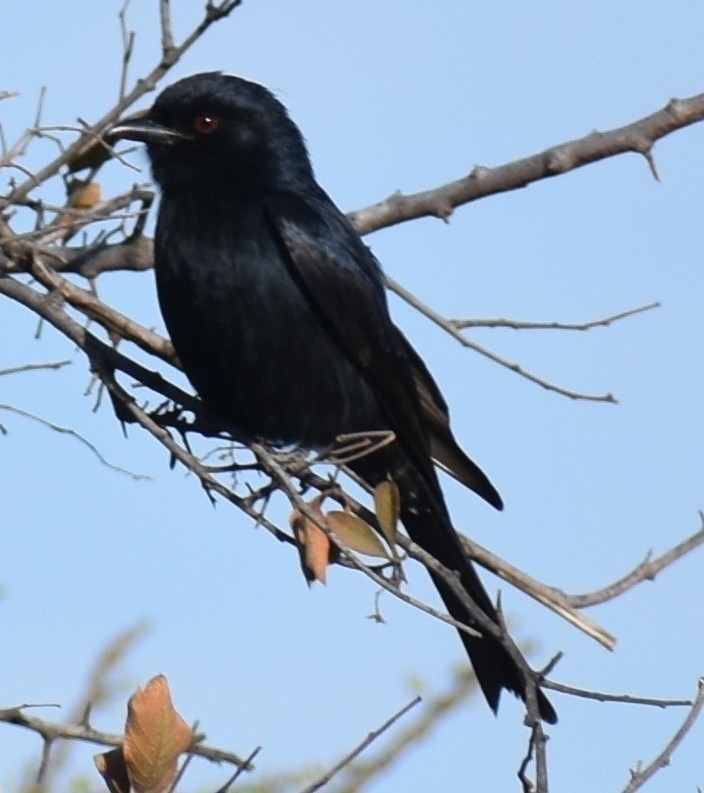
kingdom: Animalia
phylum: Chordata
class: Aves
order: Passeriformes
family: Dicruridae
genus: Dicrurus
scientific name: Dicrurus adsimilis
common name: Fork-tailed drongo
